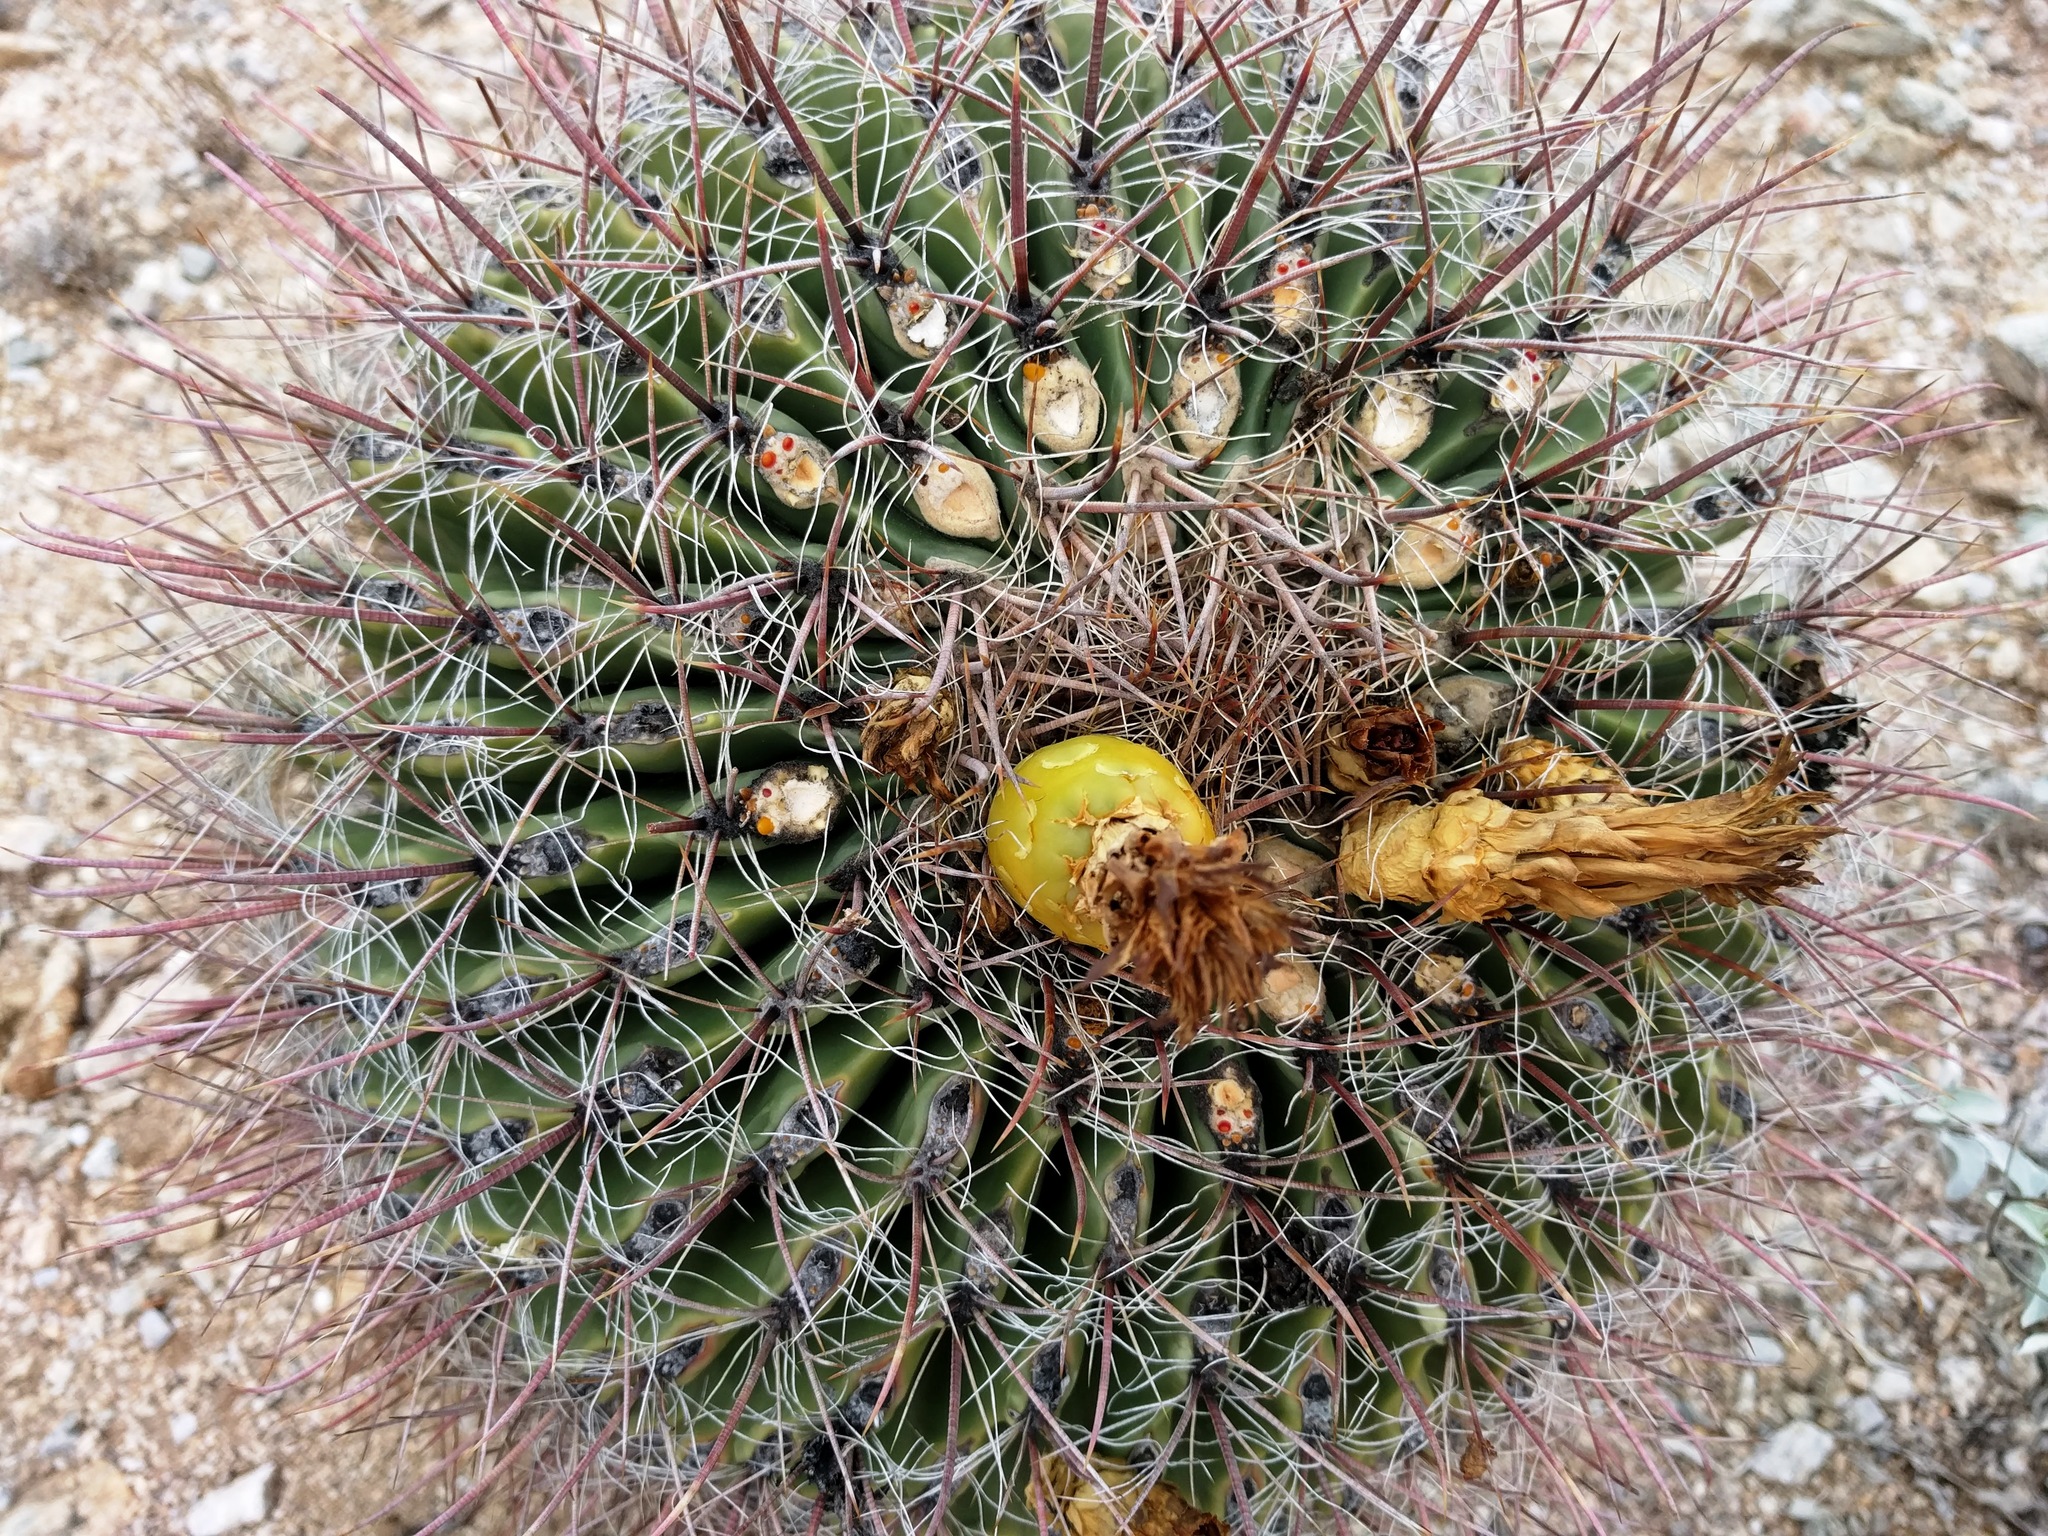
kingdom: Plantae
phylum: Tracheophyta
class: Magnoliopsida
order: Caryophyllales
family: Cactaceae
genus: Ferocactus
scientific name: Ferocactus cylindraceus
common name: California barrel cactus
